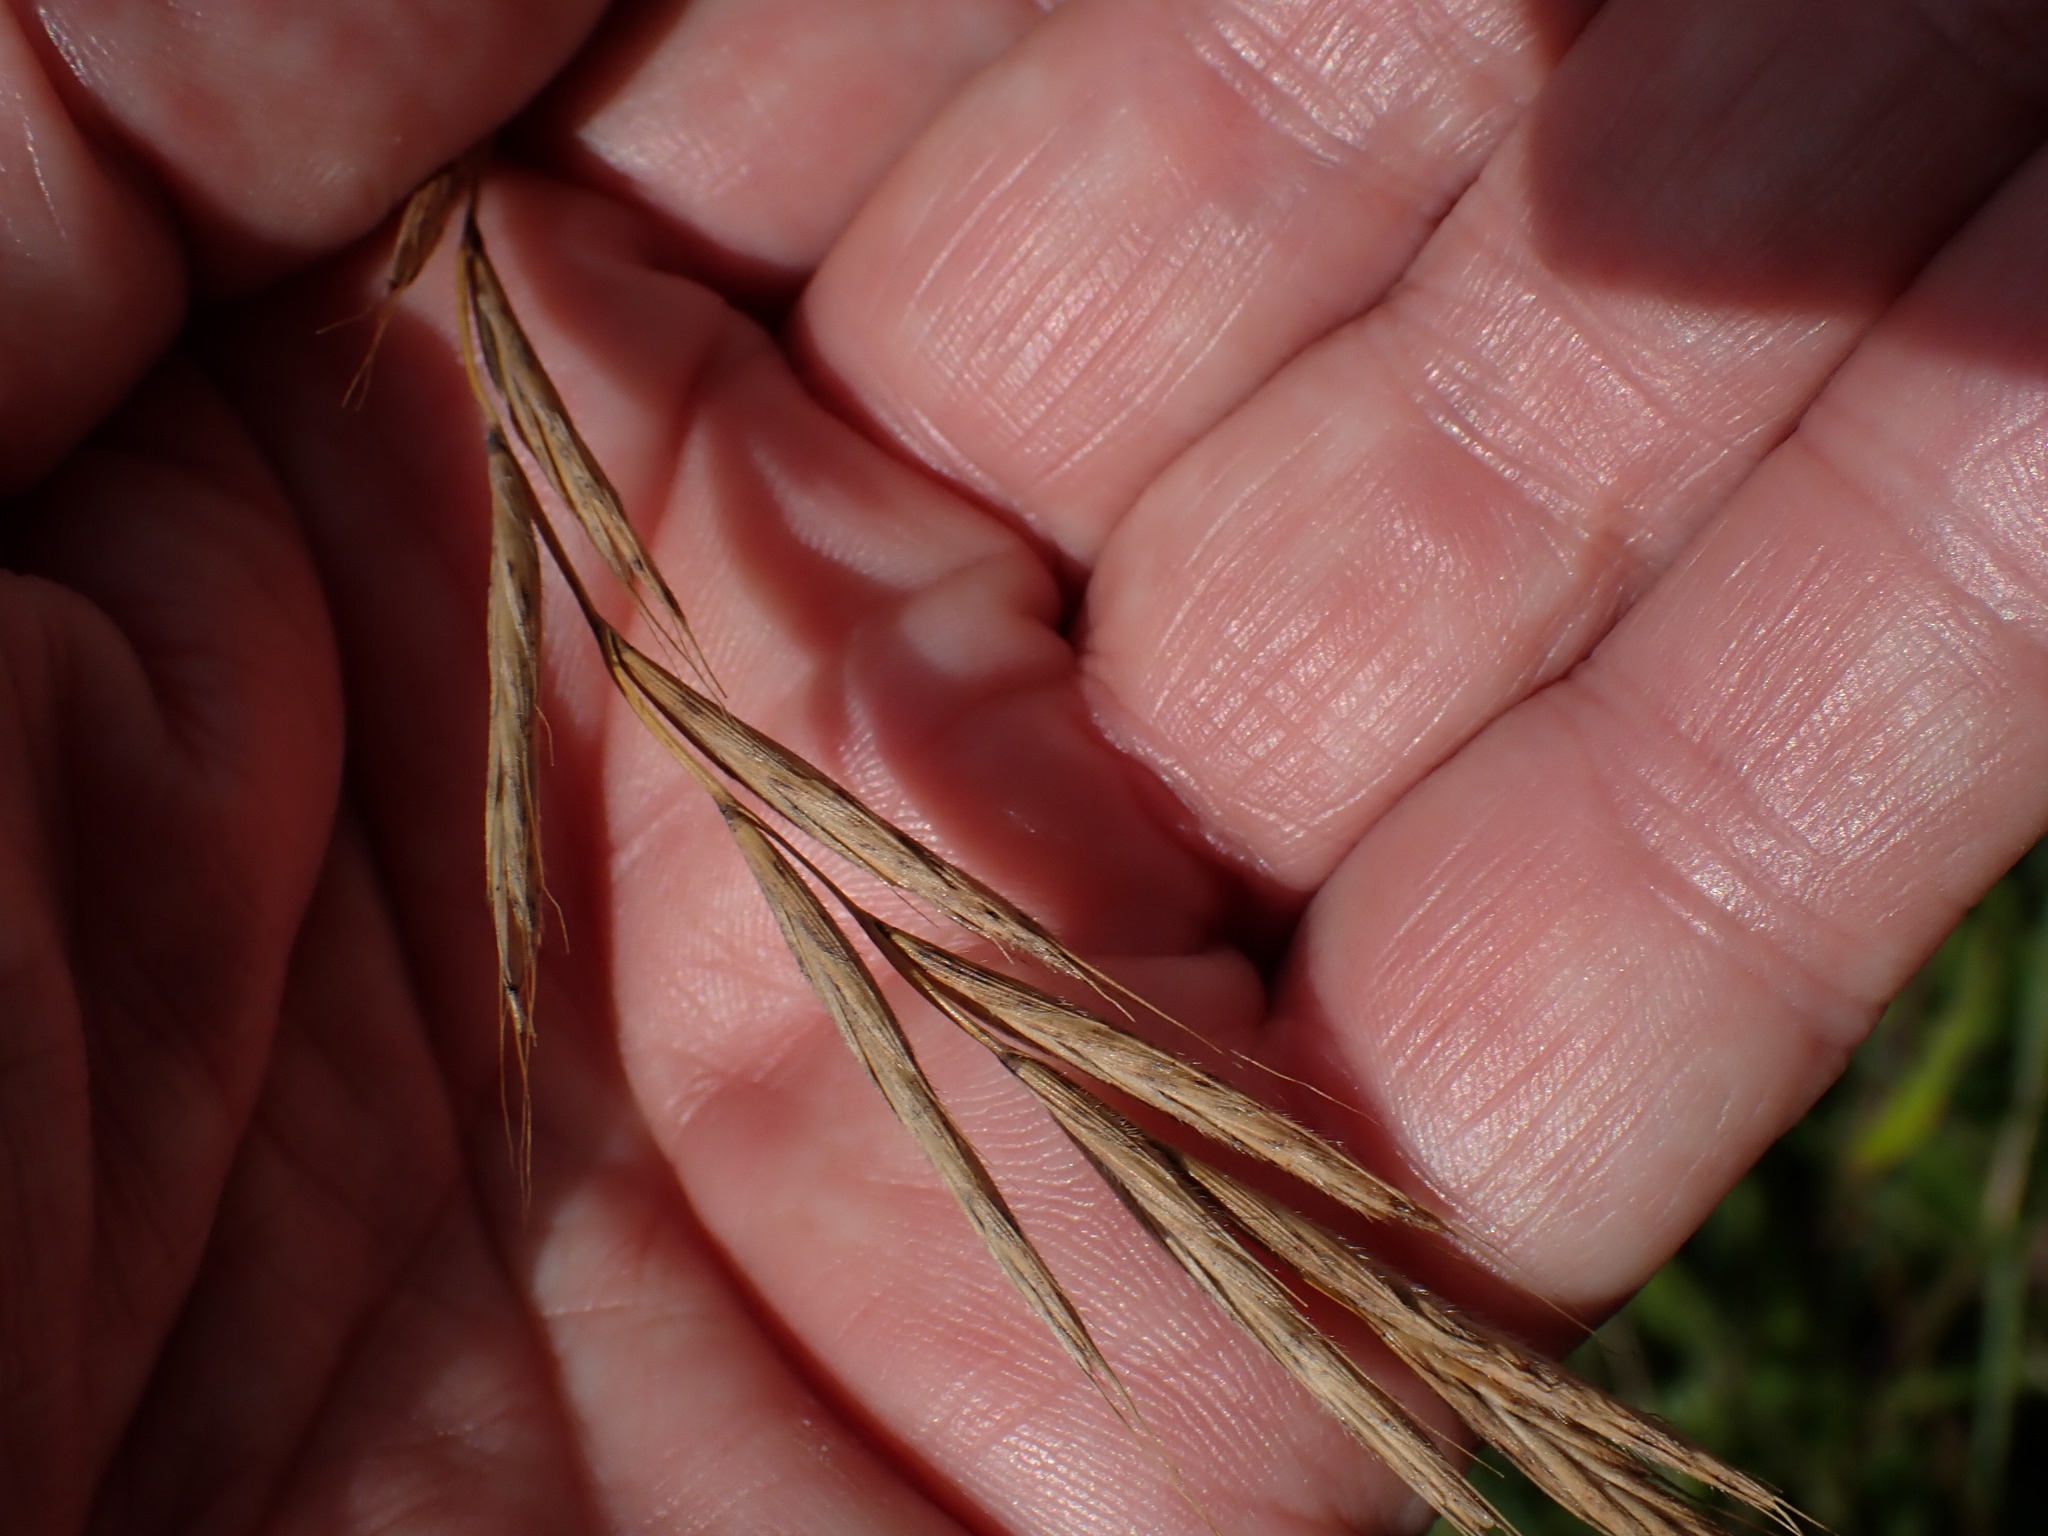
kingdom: Plantae
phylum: Tracheophyta
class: Liliopsida
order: Poales
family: Poaceae
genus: Brachypodium
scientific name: Brachypodium sylvaticum
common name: False-brome
